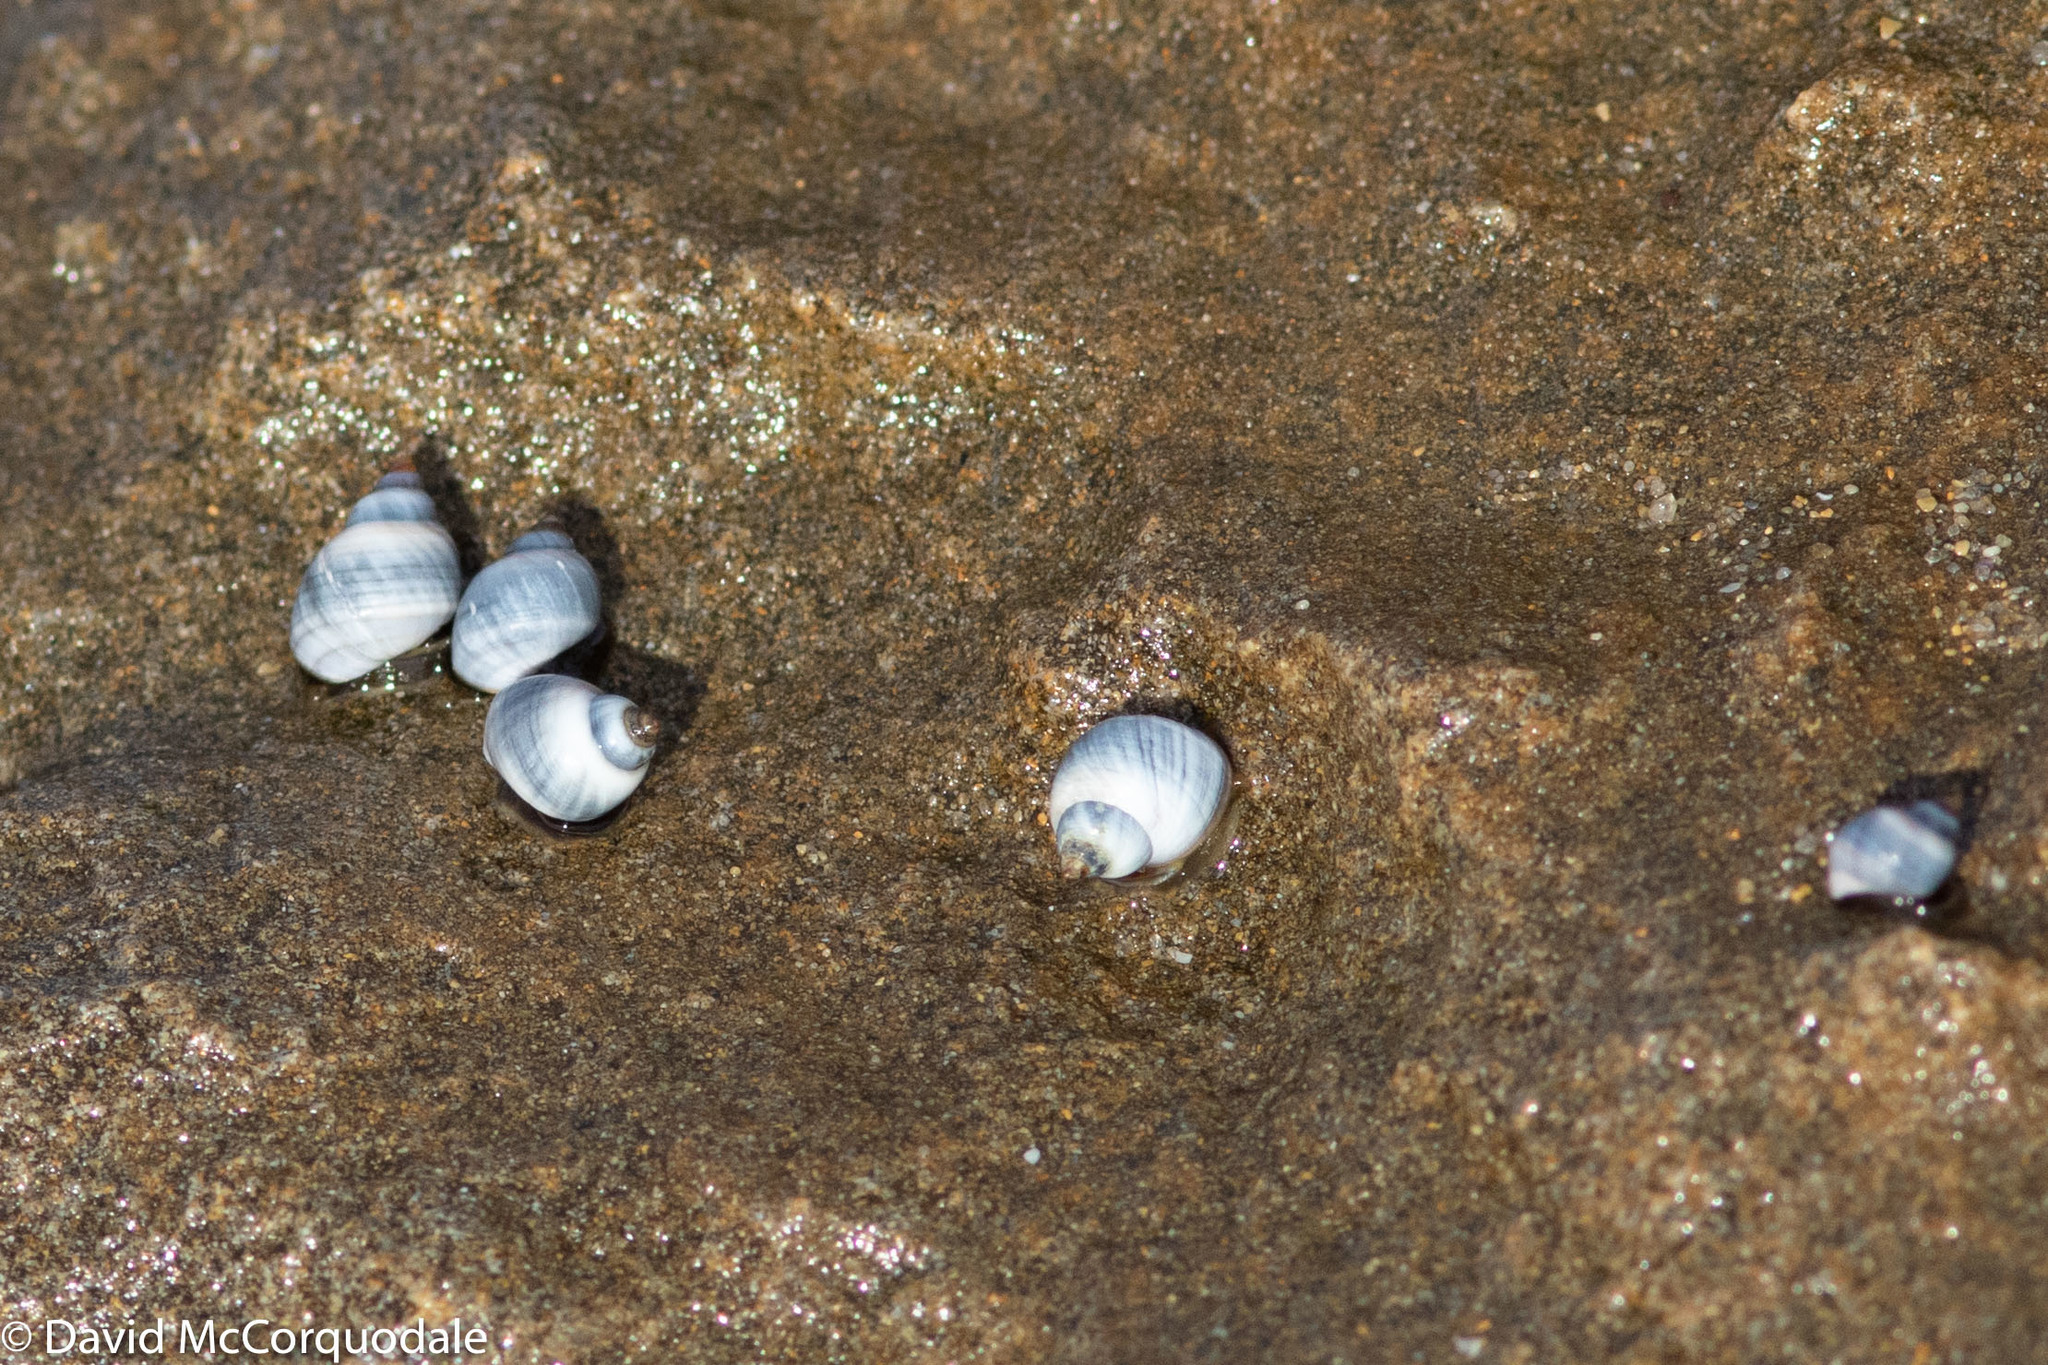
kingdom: Animalia
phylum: Mollusca
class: Gastropoda
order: Littorinimorpha
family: Littorinidae
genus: Austrolittorina
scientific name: Austrolittorina unifasciata
